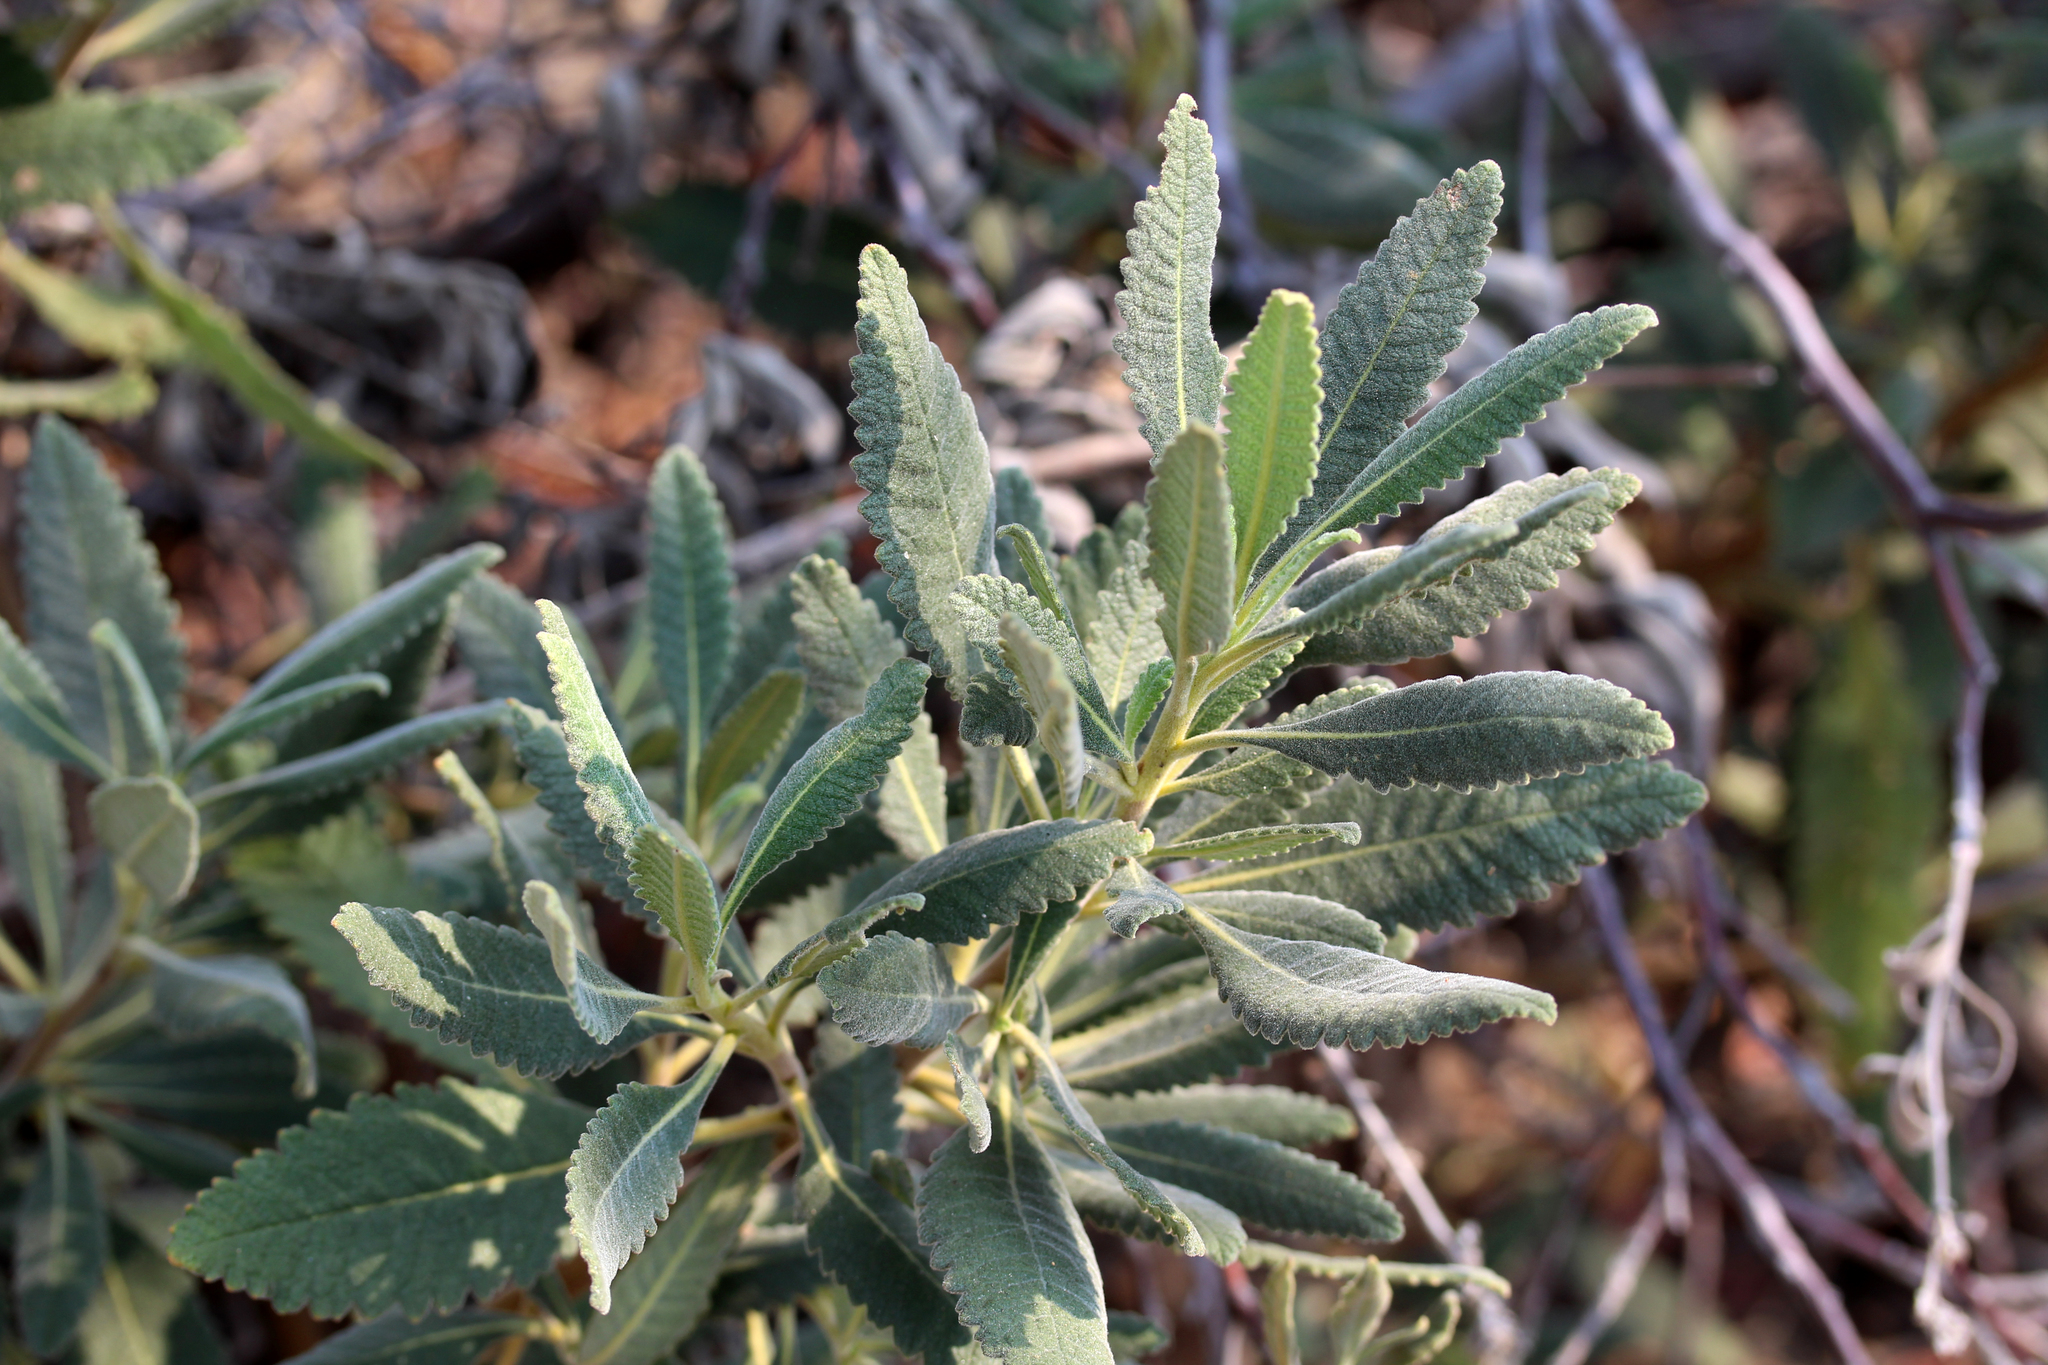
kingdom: Plantae
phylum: Tracheophyta
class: Magnoliopsida
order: Boraginales
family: Namaceae
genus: Eriodictyon
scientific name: Eriodictyon crassifolium
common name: Thick-leaf yerba-santa
